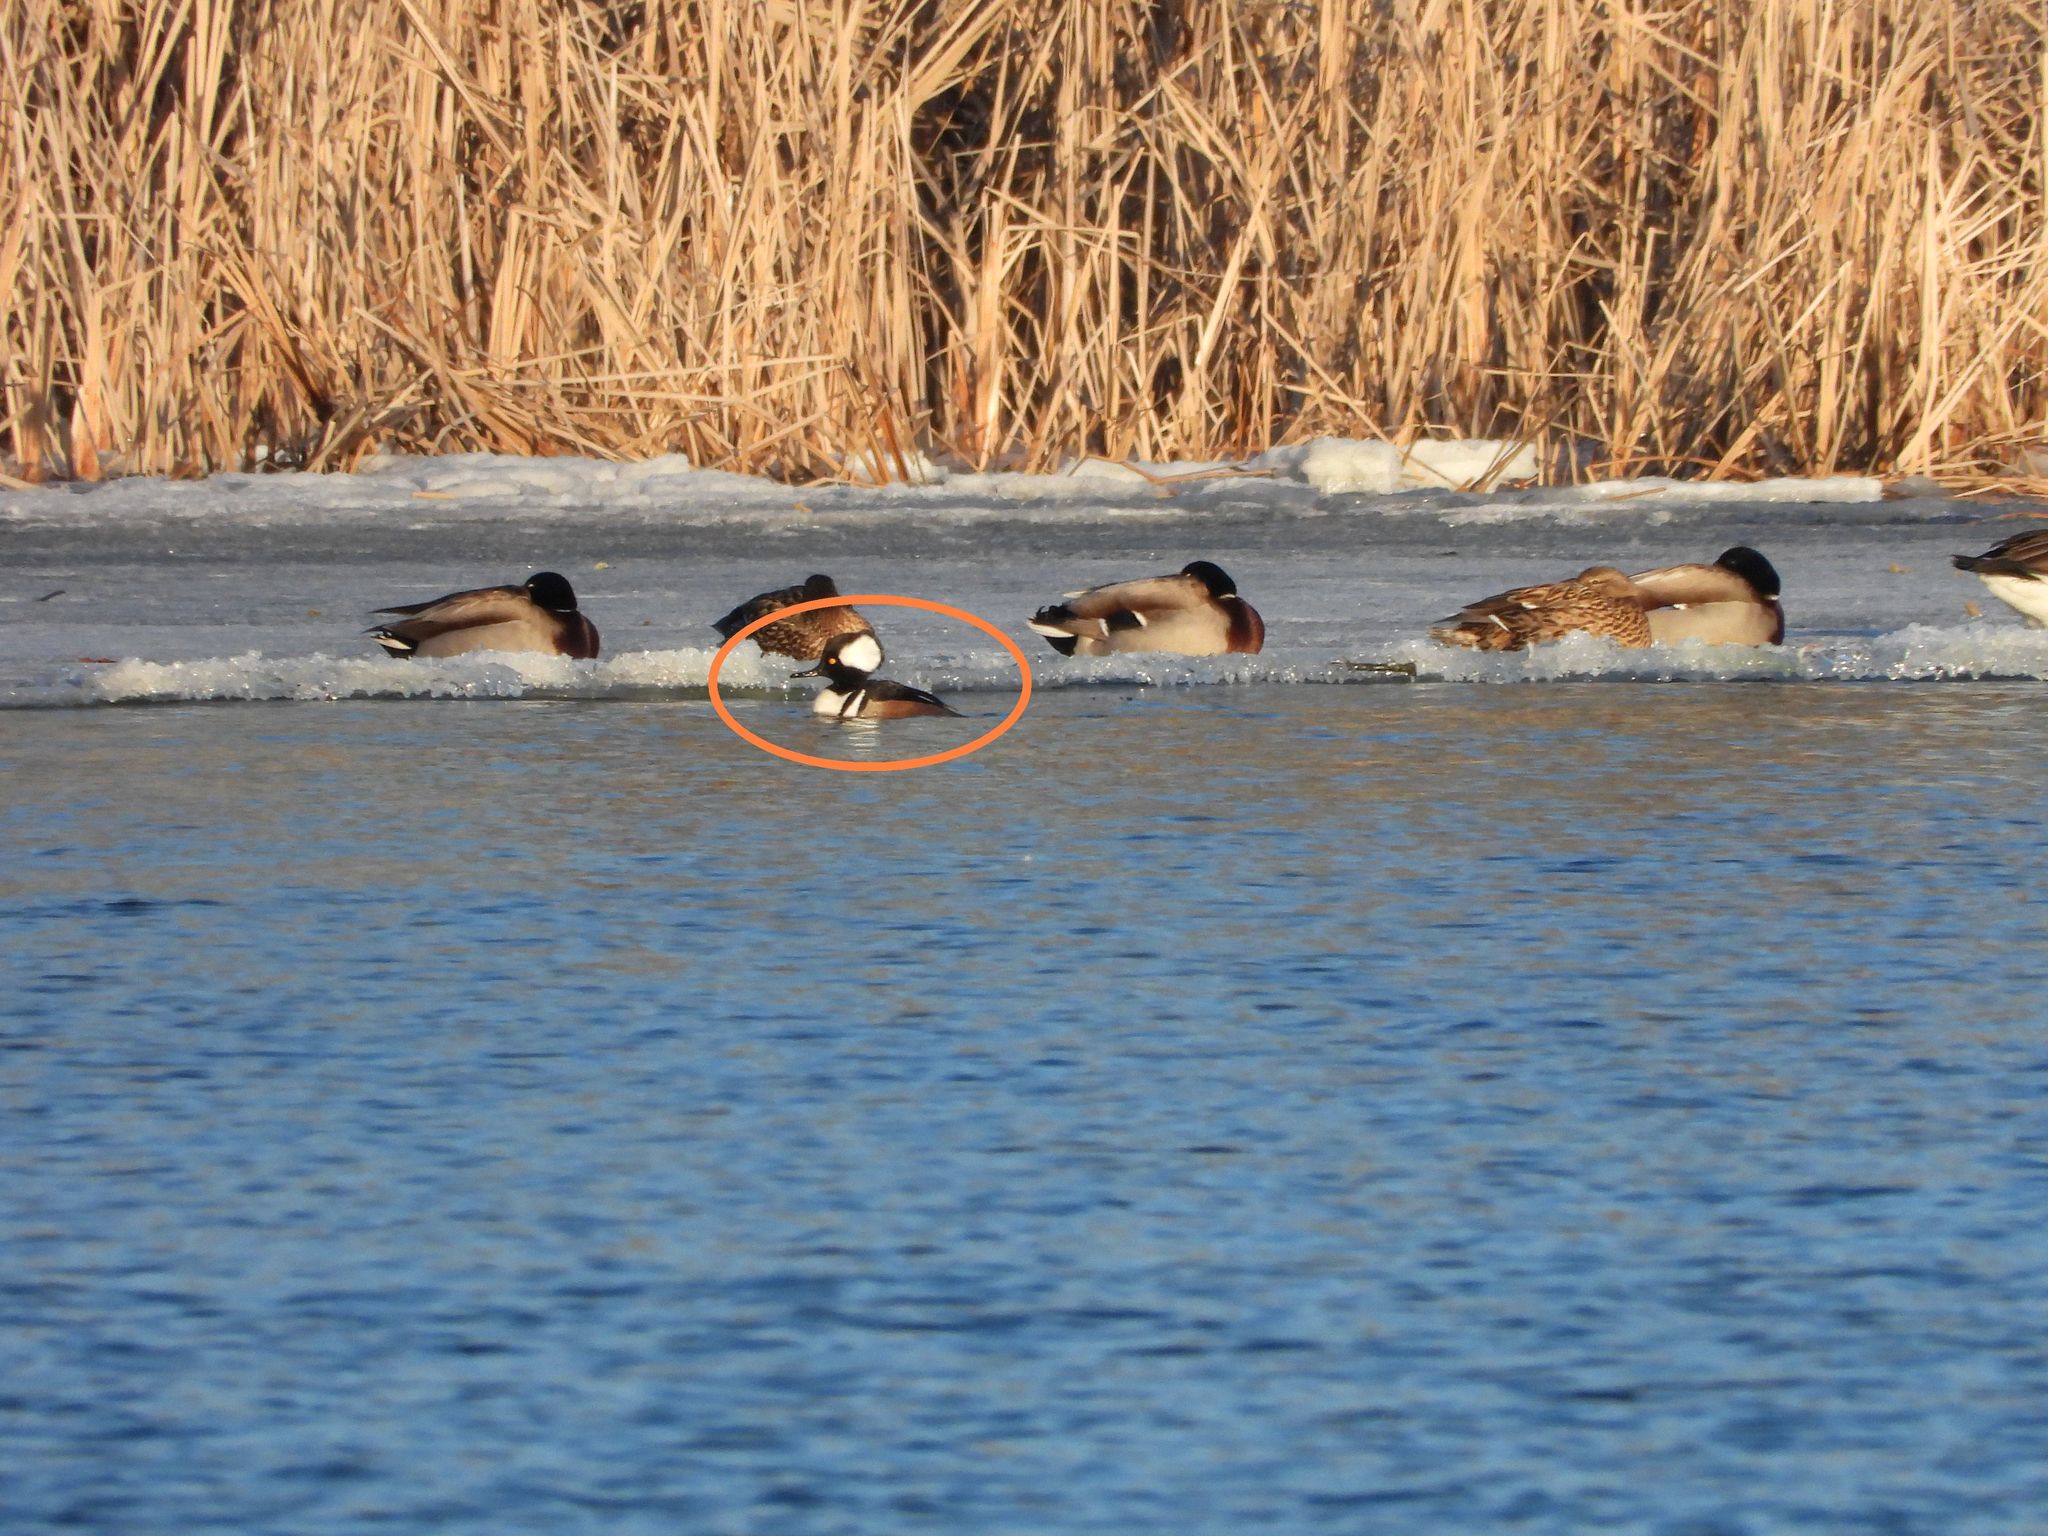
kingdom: Animalia
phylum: Chordata
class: Aves
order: Anseriformes
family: Anatidae
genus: Lophodytes
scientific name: Lophodytes cucullatus
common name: Hooded merganser
